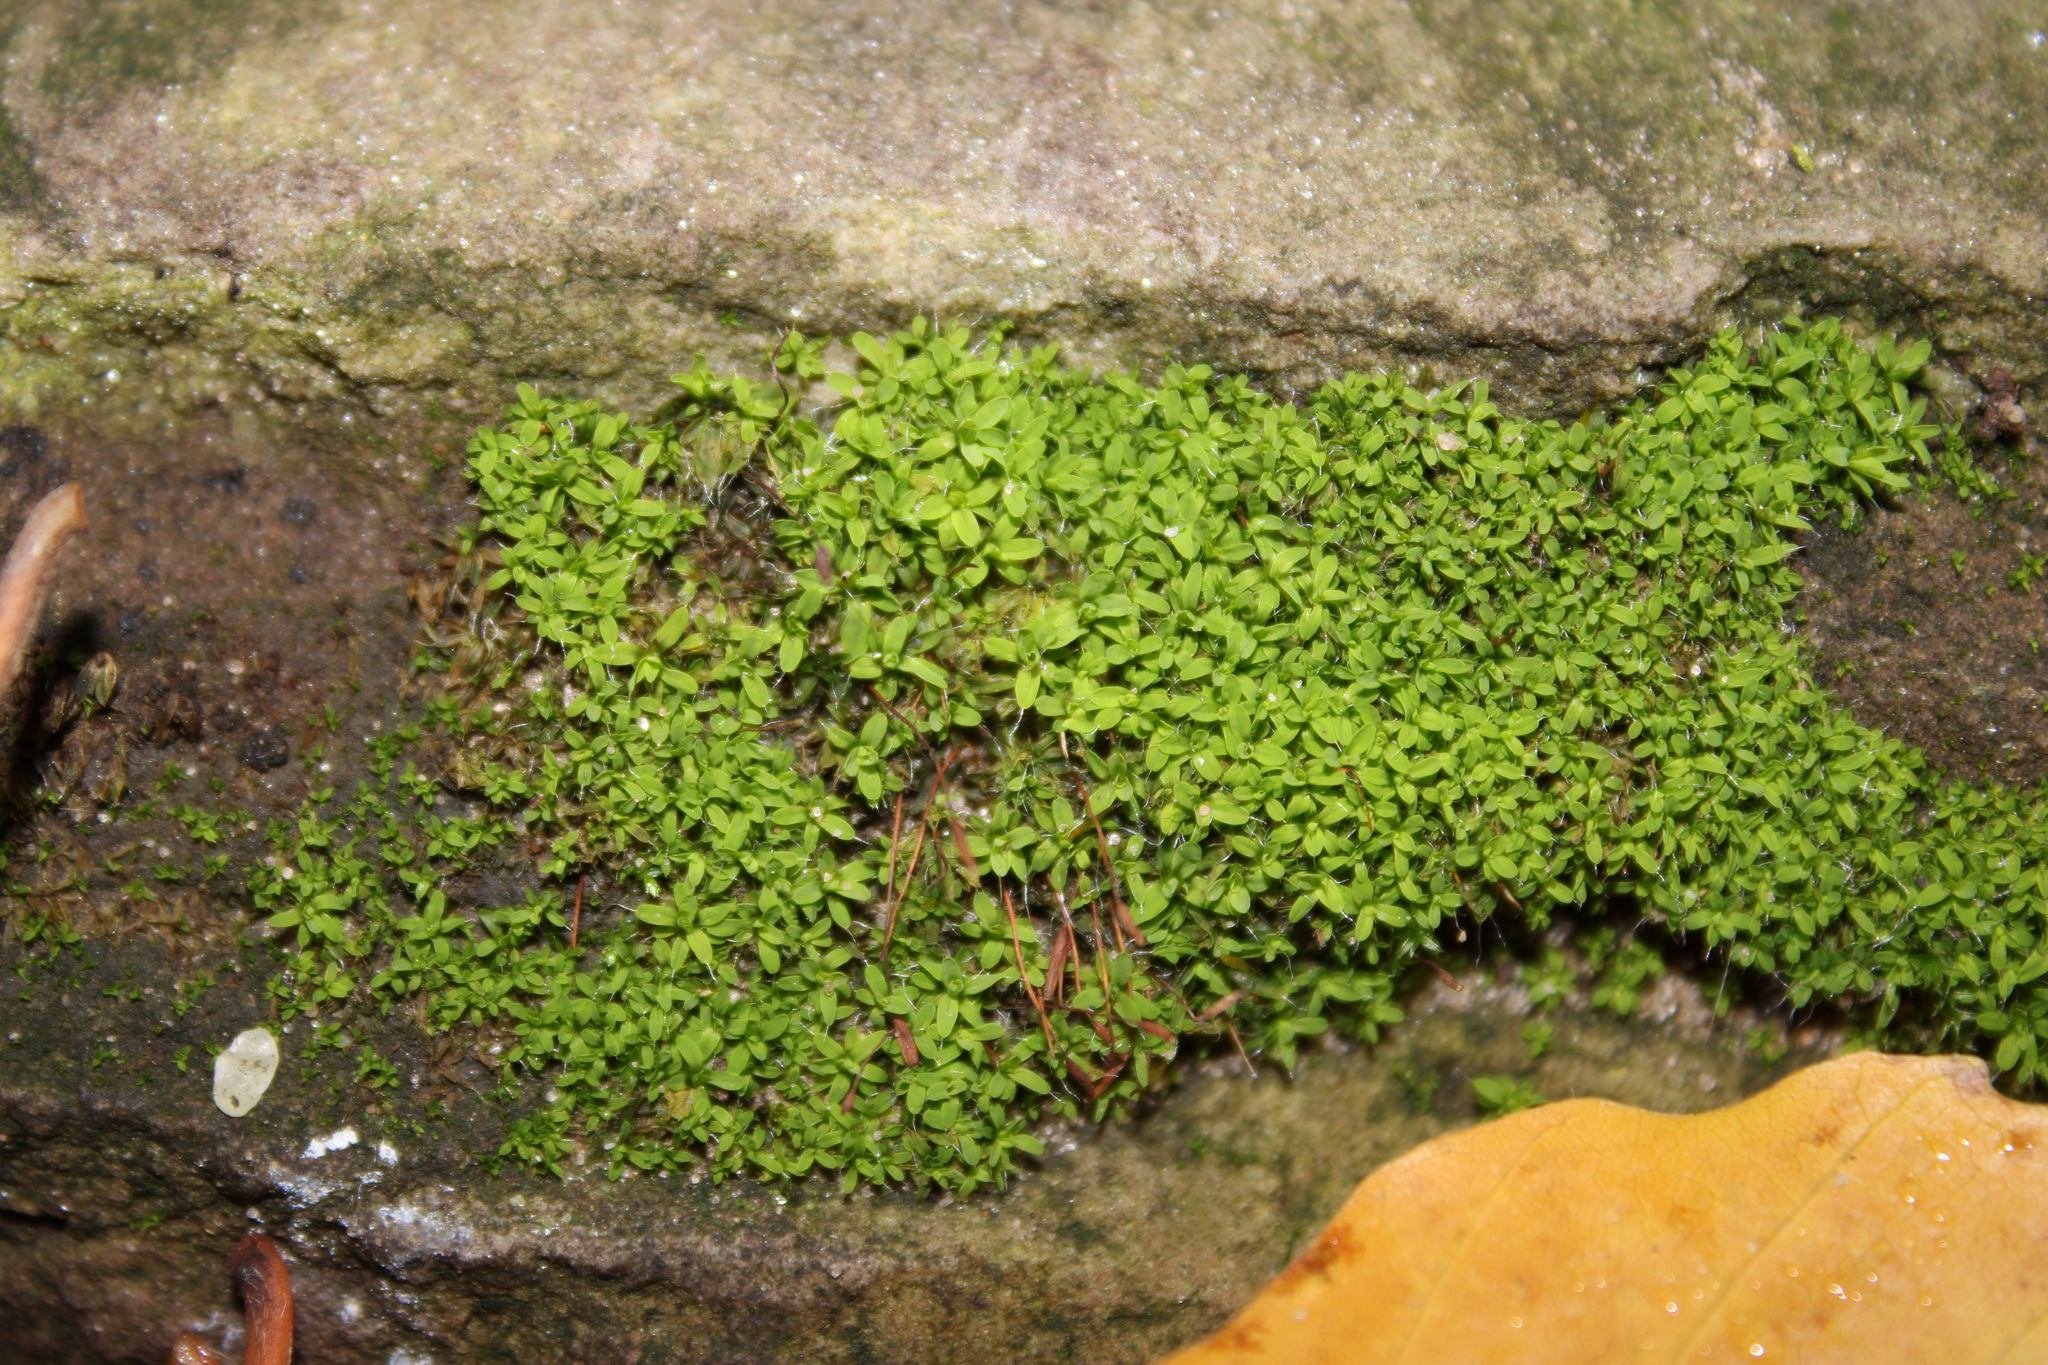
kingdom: Plantae
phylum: Bryophyta
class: Bryopsida
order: Pottiales
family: Pottiaceae
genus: Tortula
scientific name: Tortula muralis
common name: Wall screw-moss
